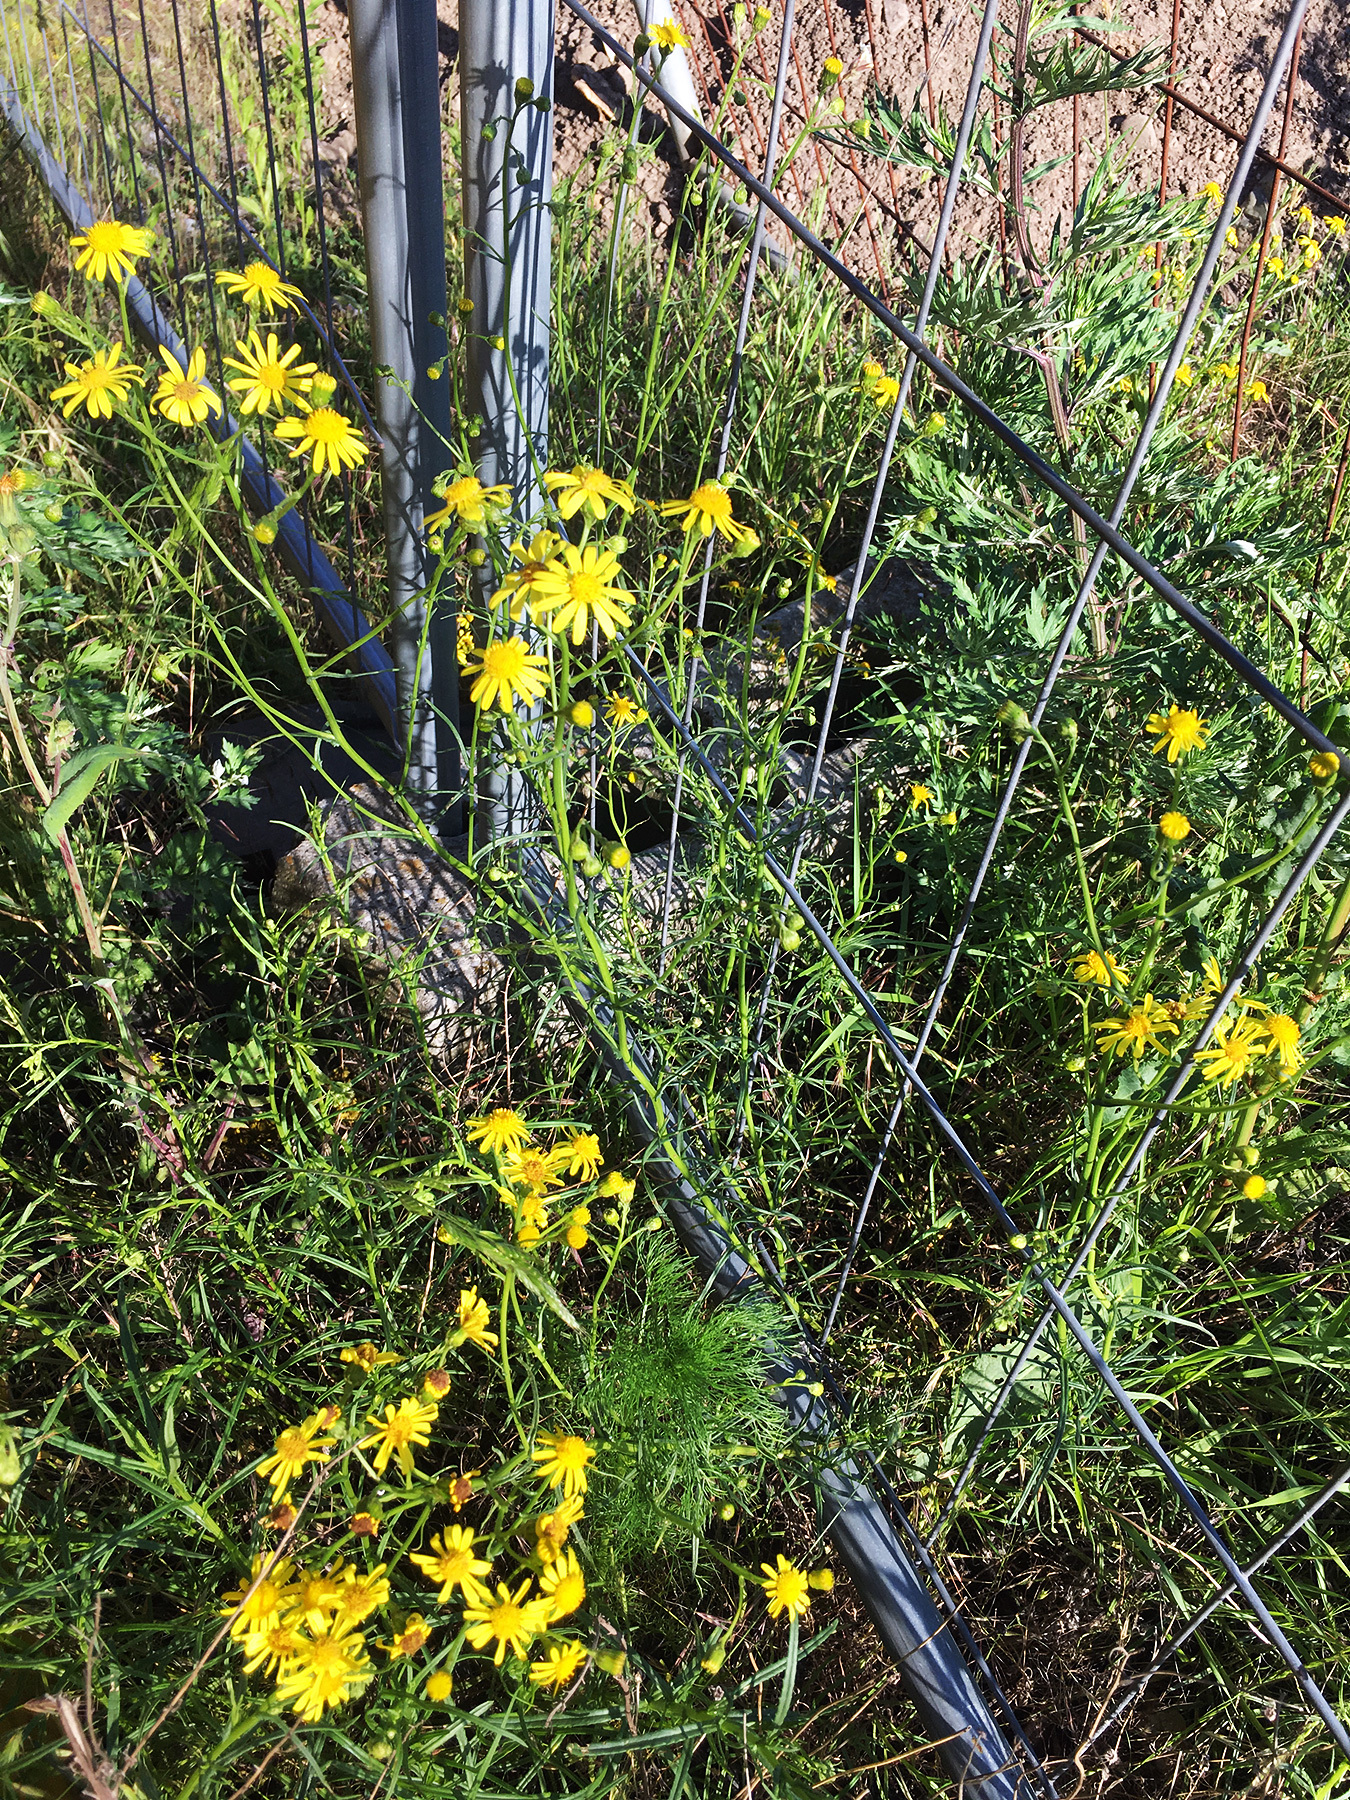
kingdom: Plantae
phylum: Tracheophyta
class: Magnoliopsida
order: Asterales
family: Asteraceae
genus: Senecio
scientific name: Senecio inaequidens
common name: Narrow-leaved ragwort
